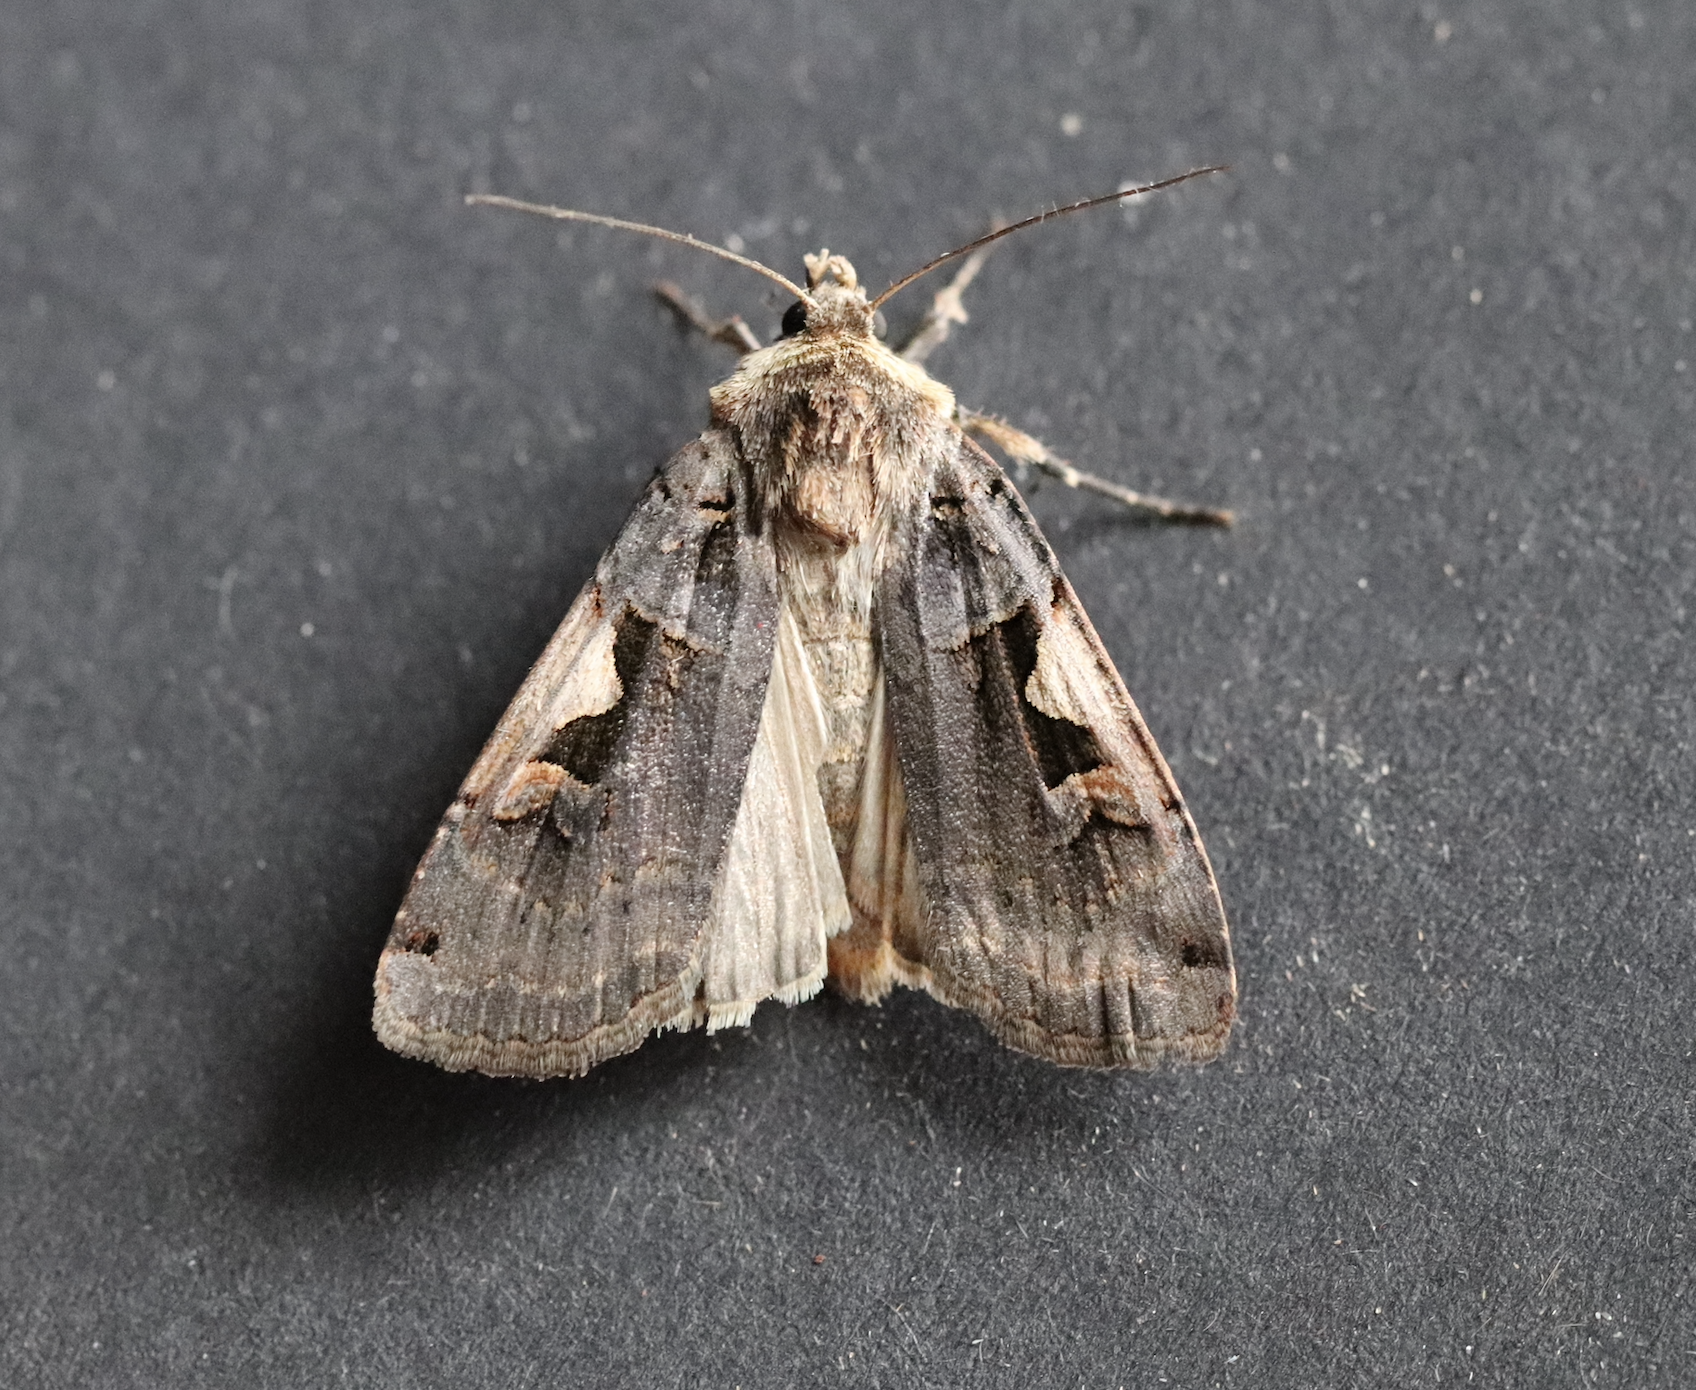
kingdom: Animalia
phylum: Arthropoda
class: Insecta
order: Lepidoptera
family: Noctuidae
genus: Xestia
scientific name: Xestia c-nigrum
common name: Setaceous hebrew character
